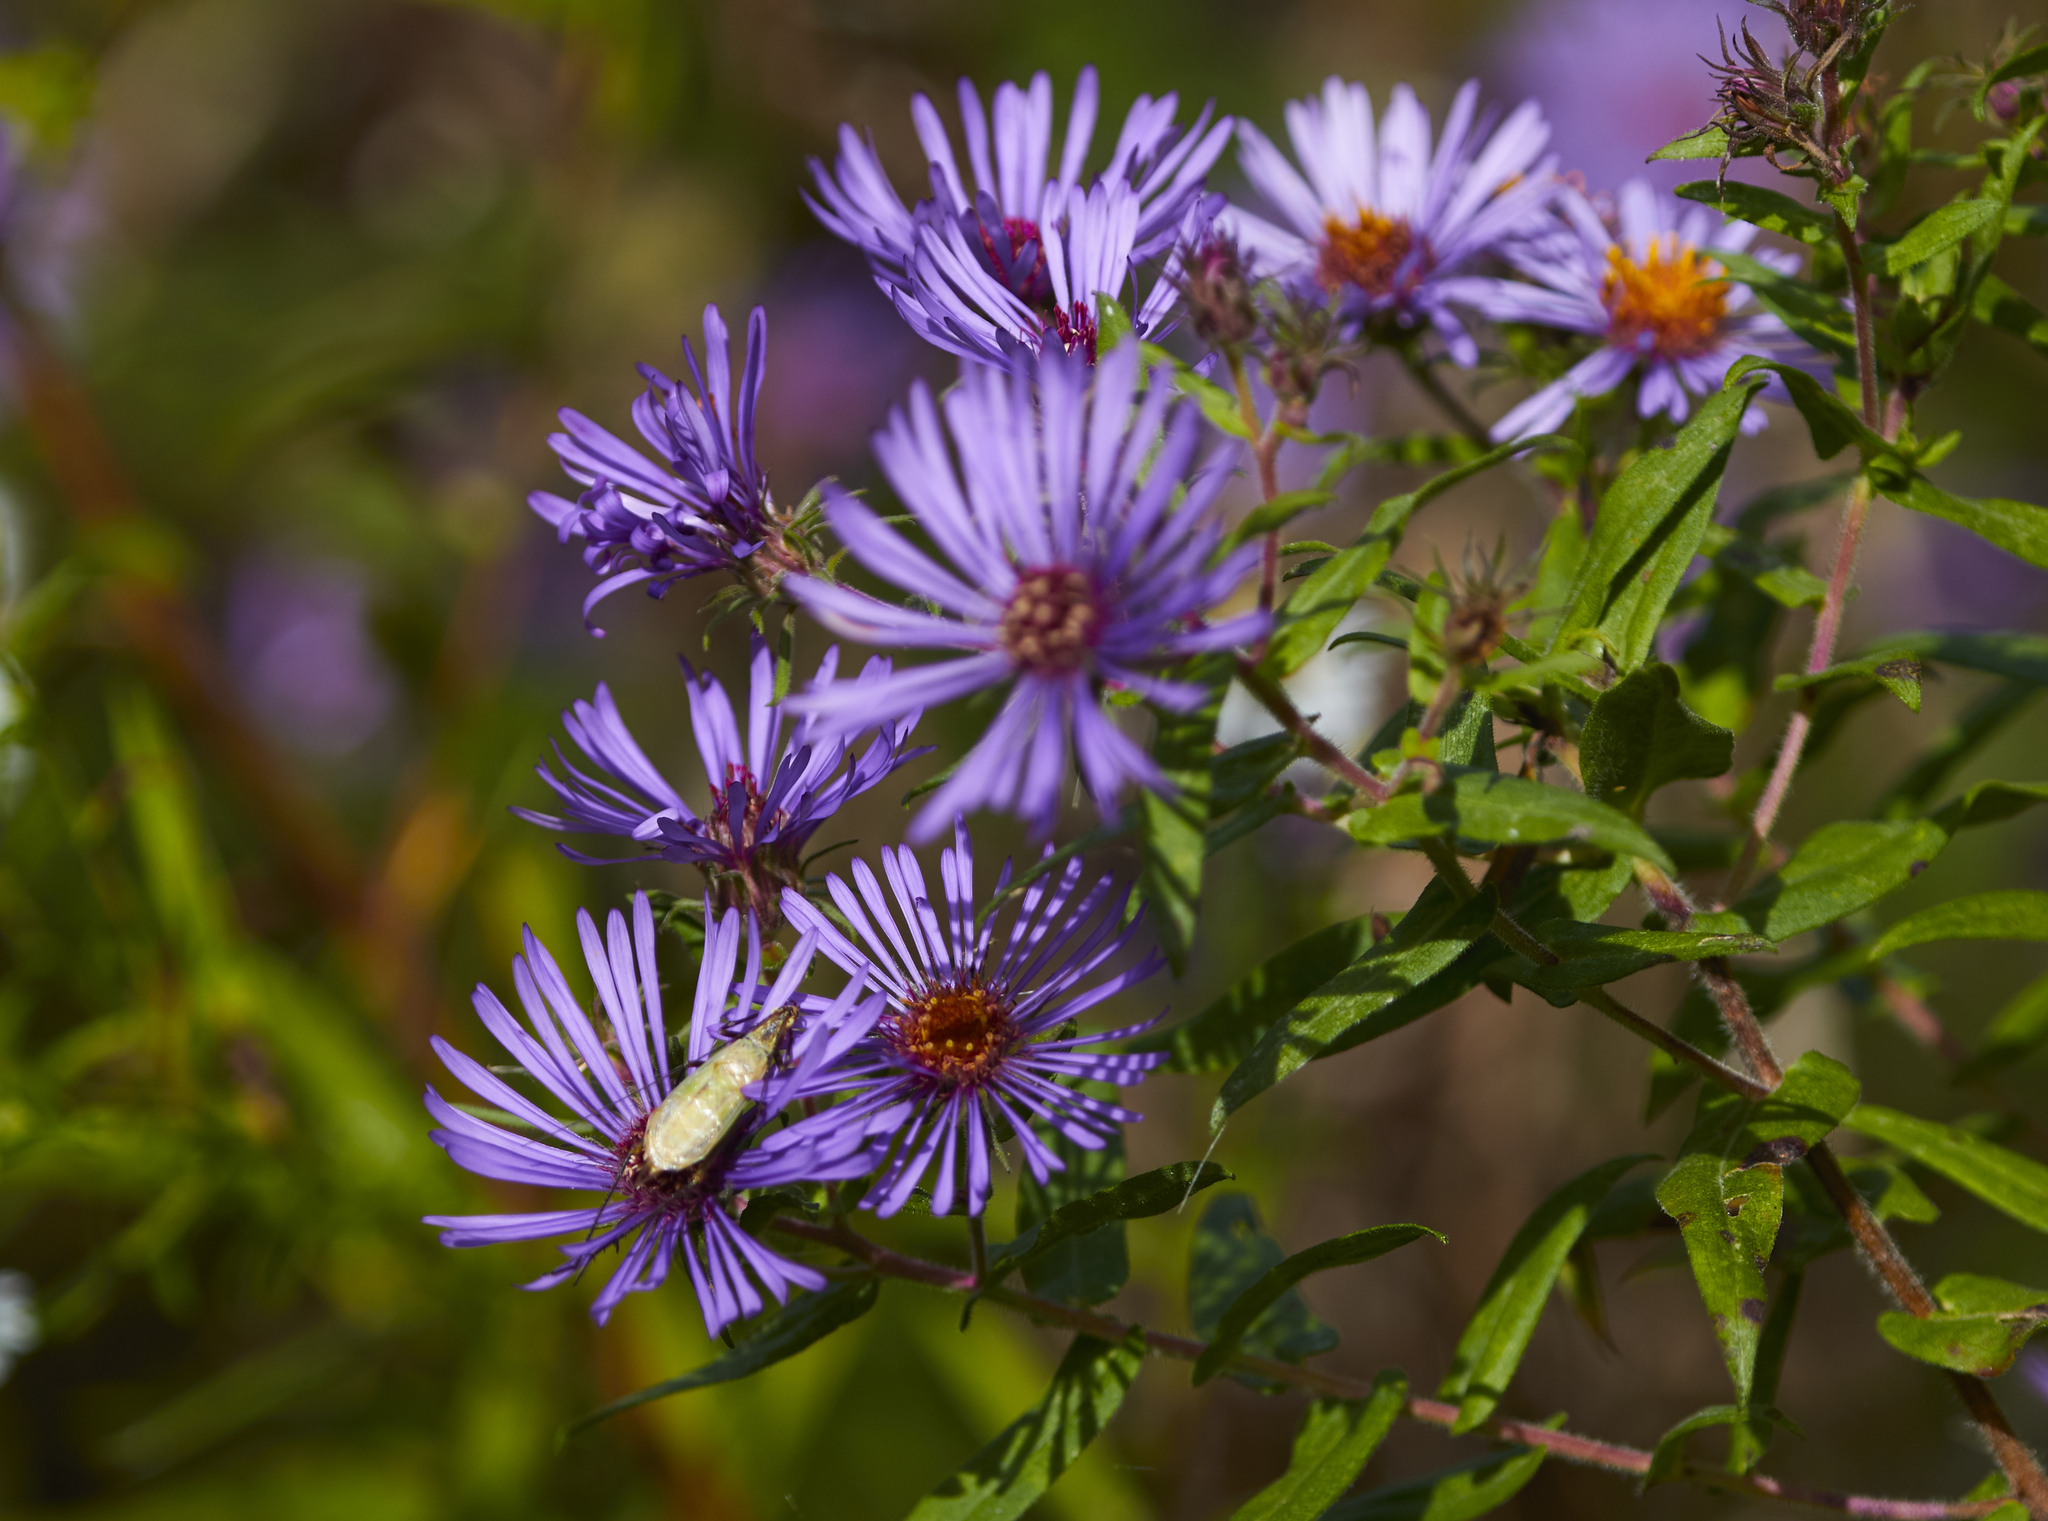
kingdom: Animalia
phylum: Arthropoda
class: Insecta
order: Orthoptera
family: Gryllidae
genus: Oecanthus
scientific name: Oecanthus nigricornis
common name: Black-horned tree cricket
